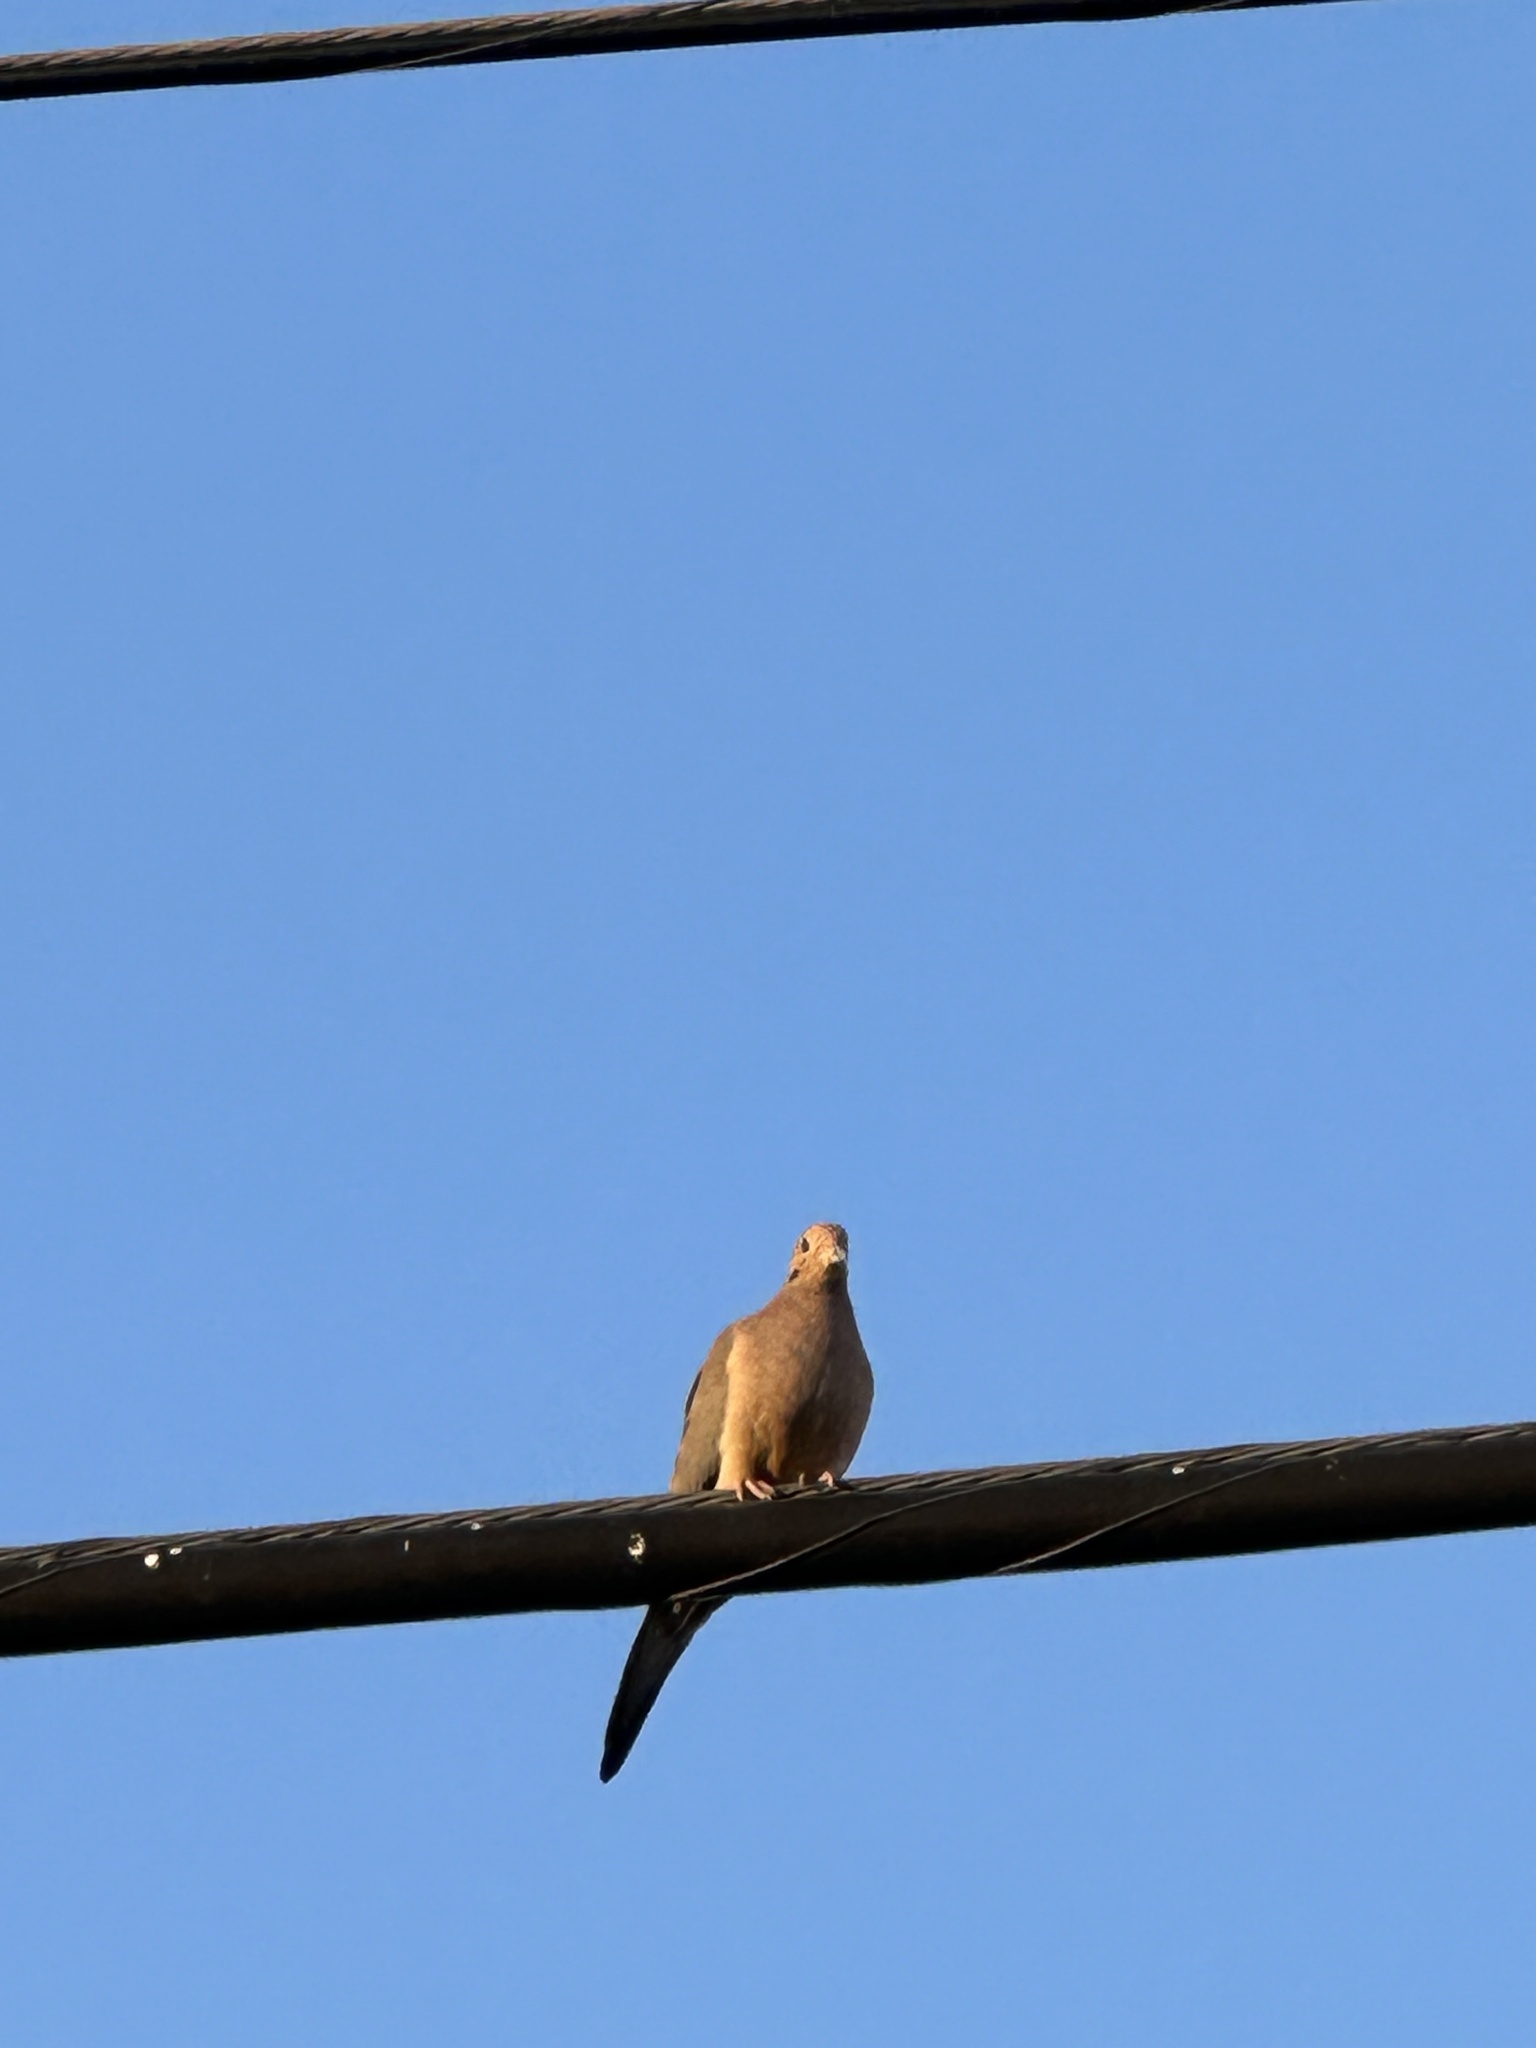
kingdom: Animalia
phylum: Chordata
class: Aves
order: Columbiformes
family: Columbidae
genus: Zenaida
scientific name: Zenaida macroura
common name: Mourning dove
